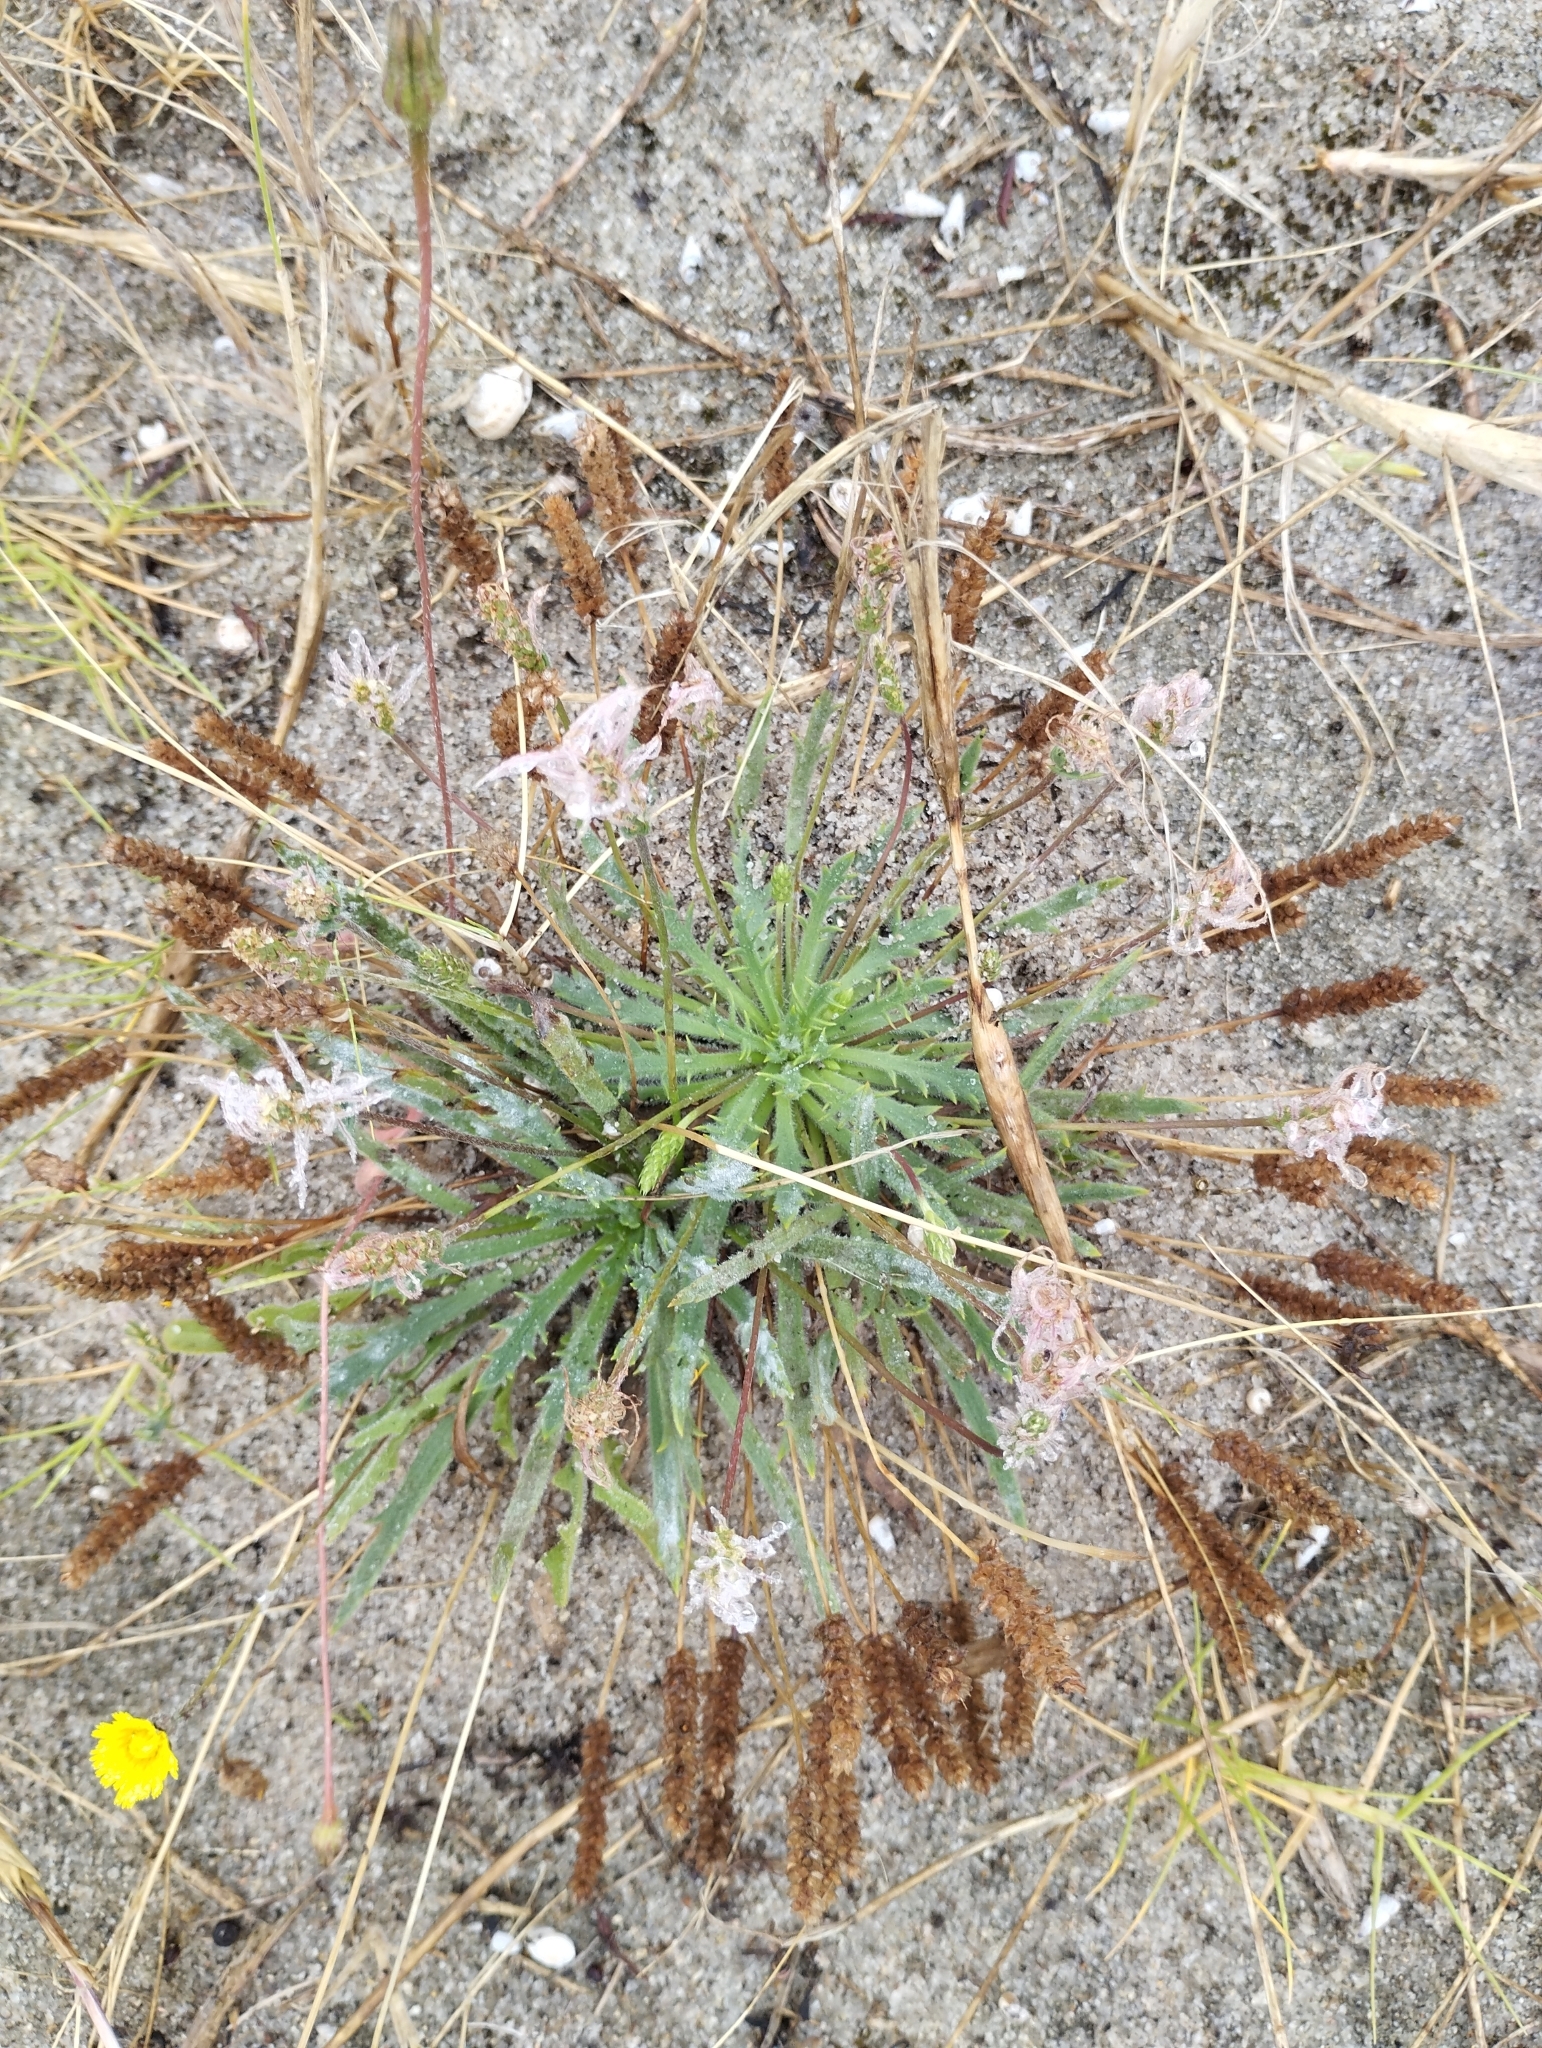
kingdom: Plantae
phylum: Tracheophyta
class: Magnoliopsida
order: Lamiales
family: Plantaginaceae
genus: Plantago
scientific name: Plantago coronopus
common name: Buck's-horn plantain
